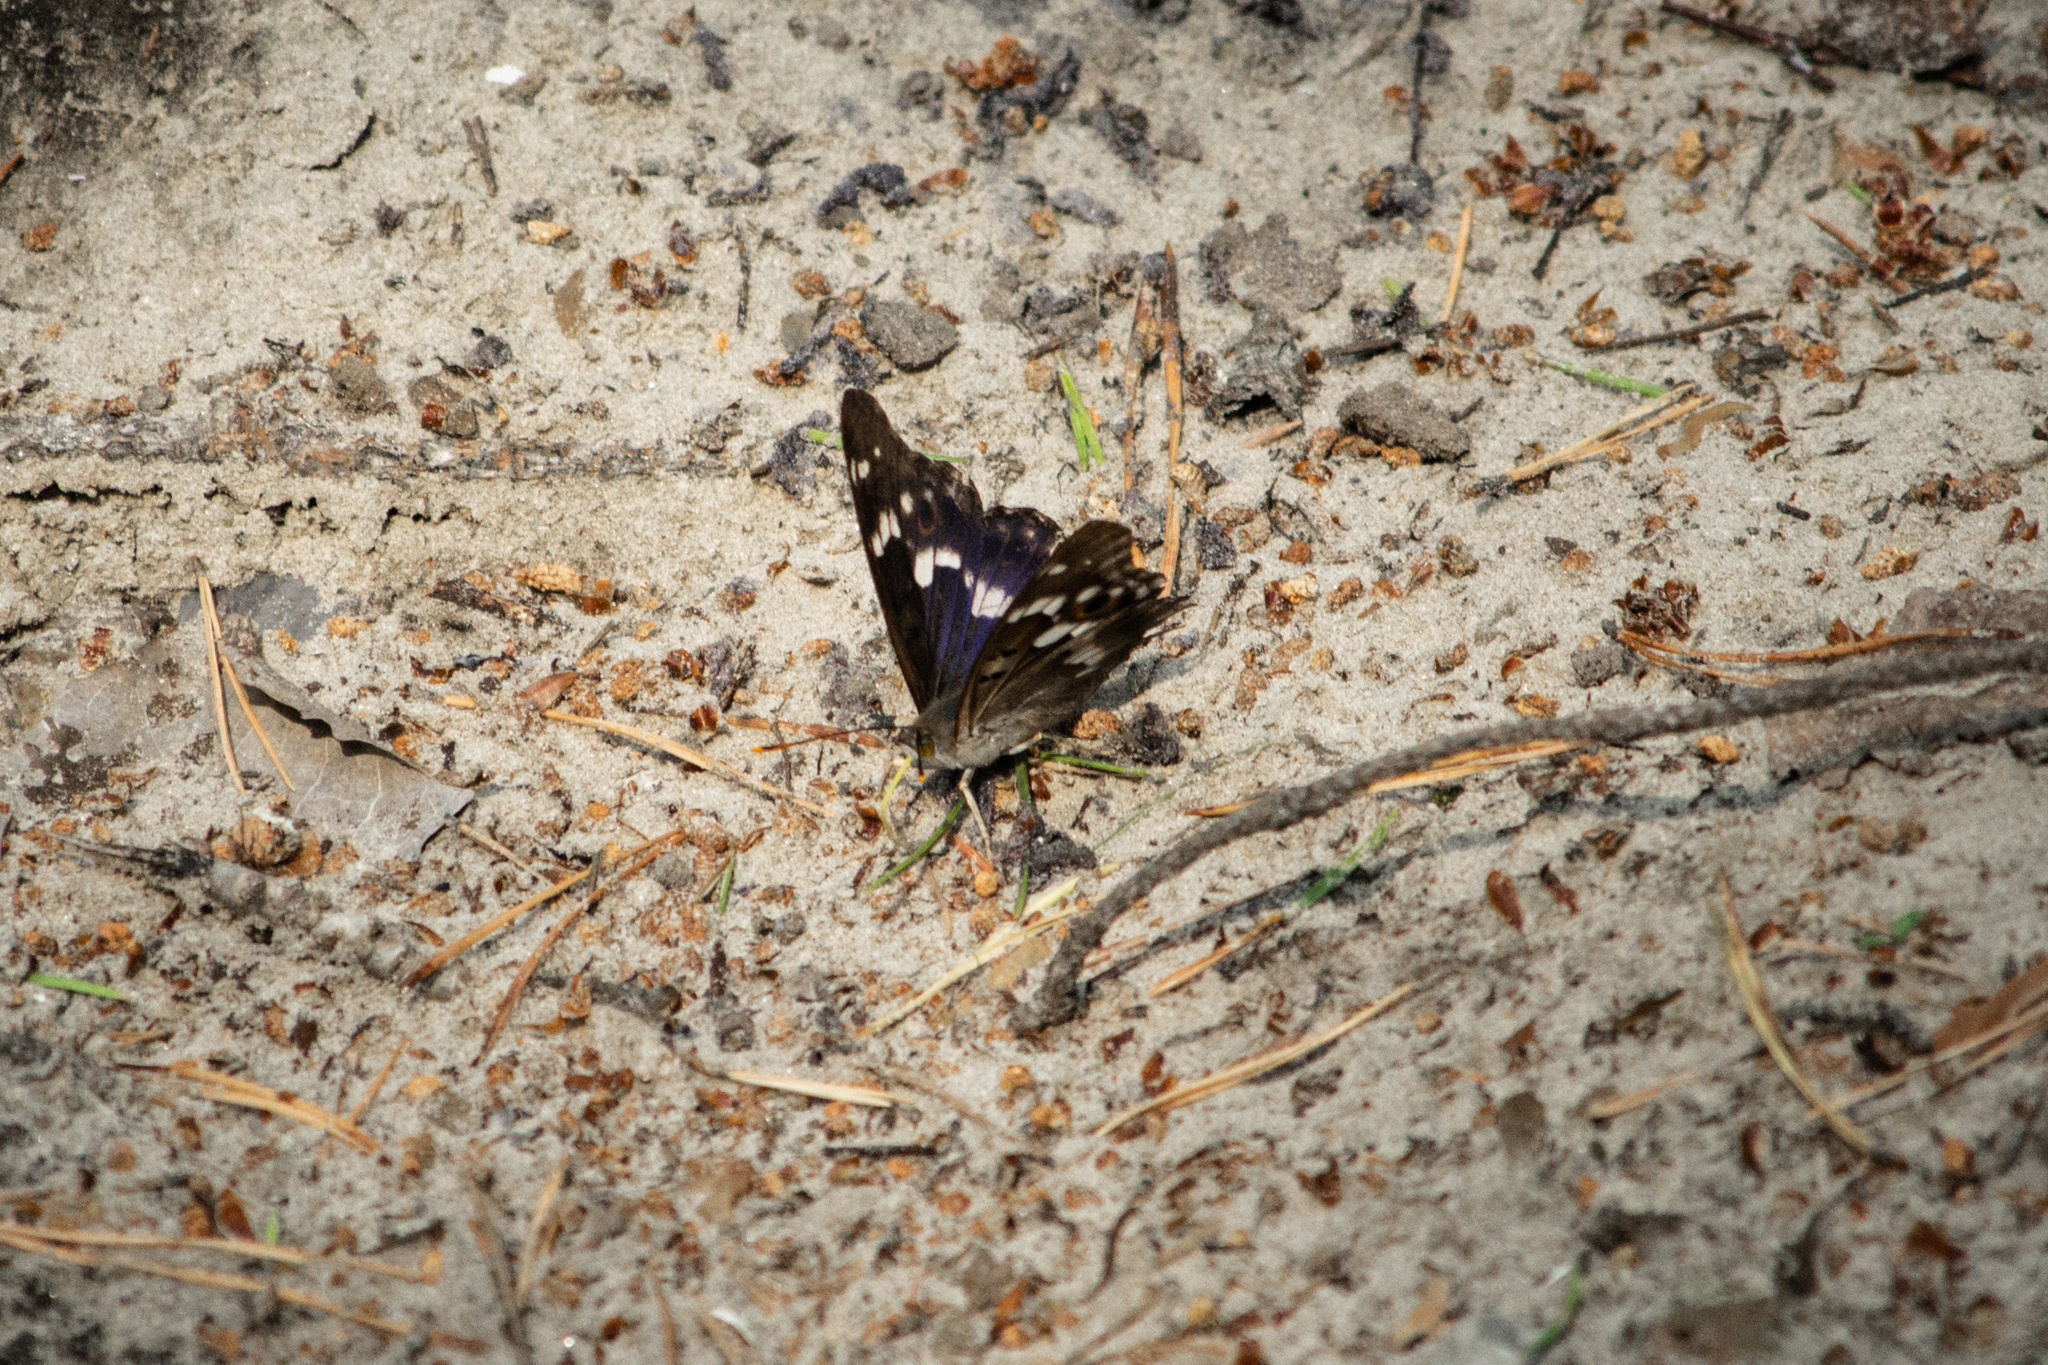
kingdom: Animalia
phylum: Arthropoda
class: Insecta
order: Lepidoptera
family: Nymphalidae
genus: Apatura
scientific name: Apatura ilia
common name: Lesser purple emperor
